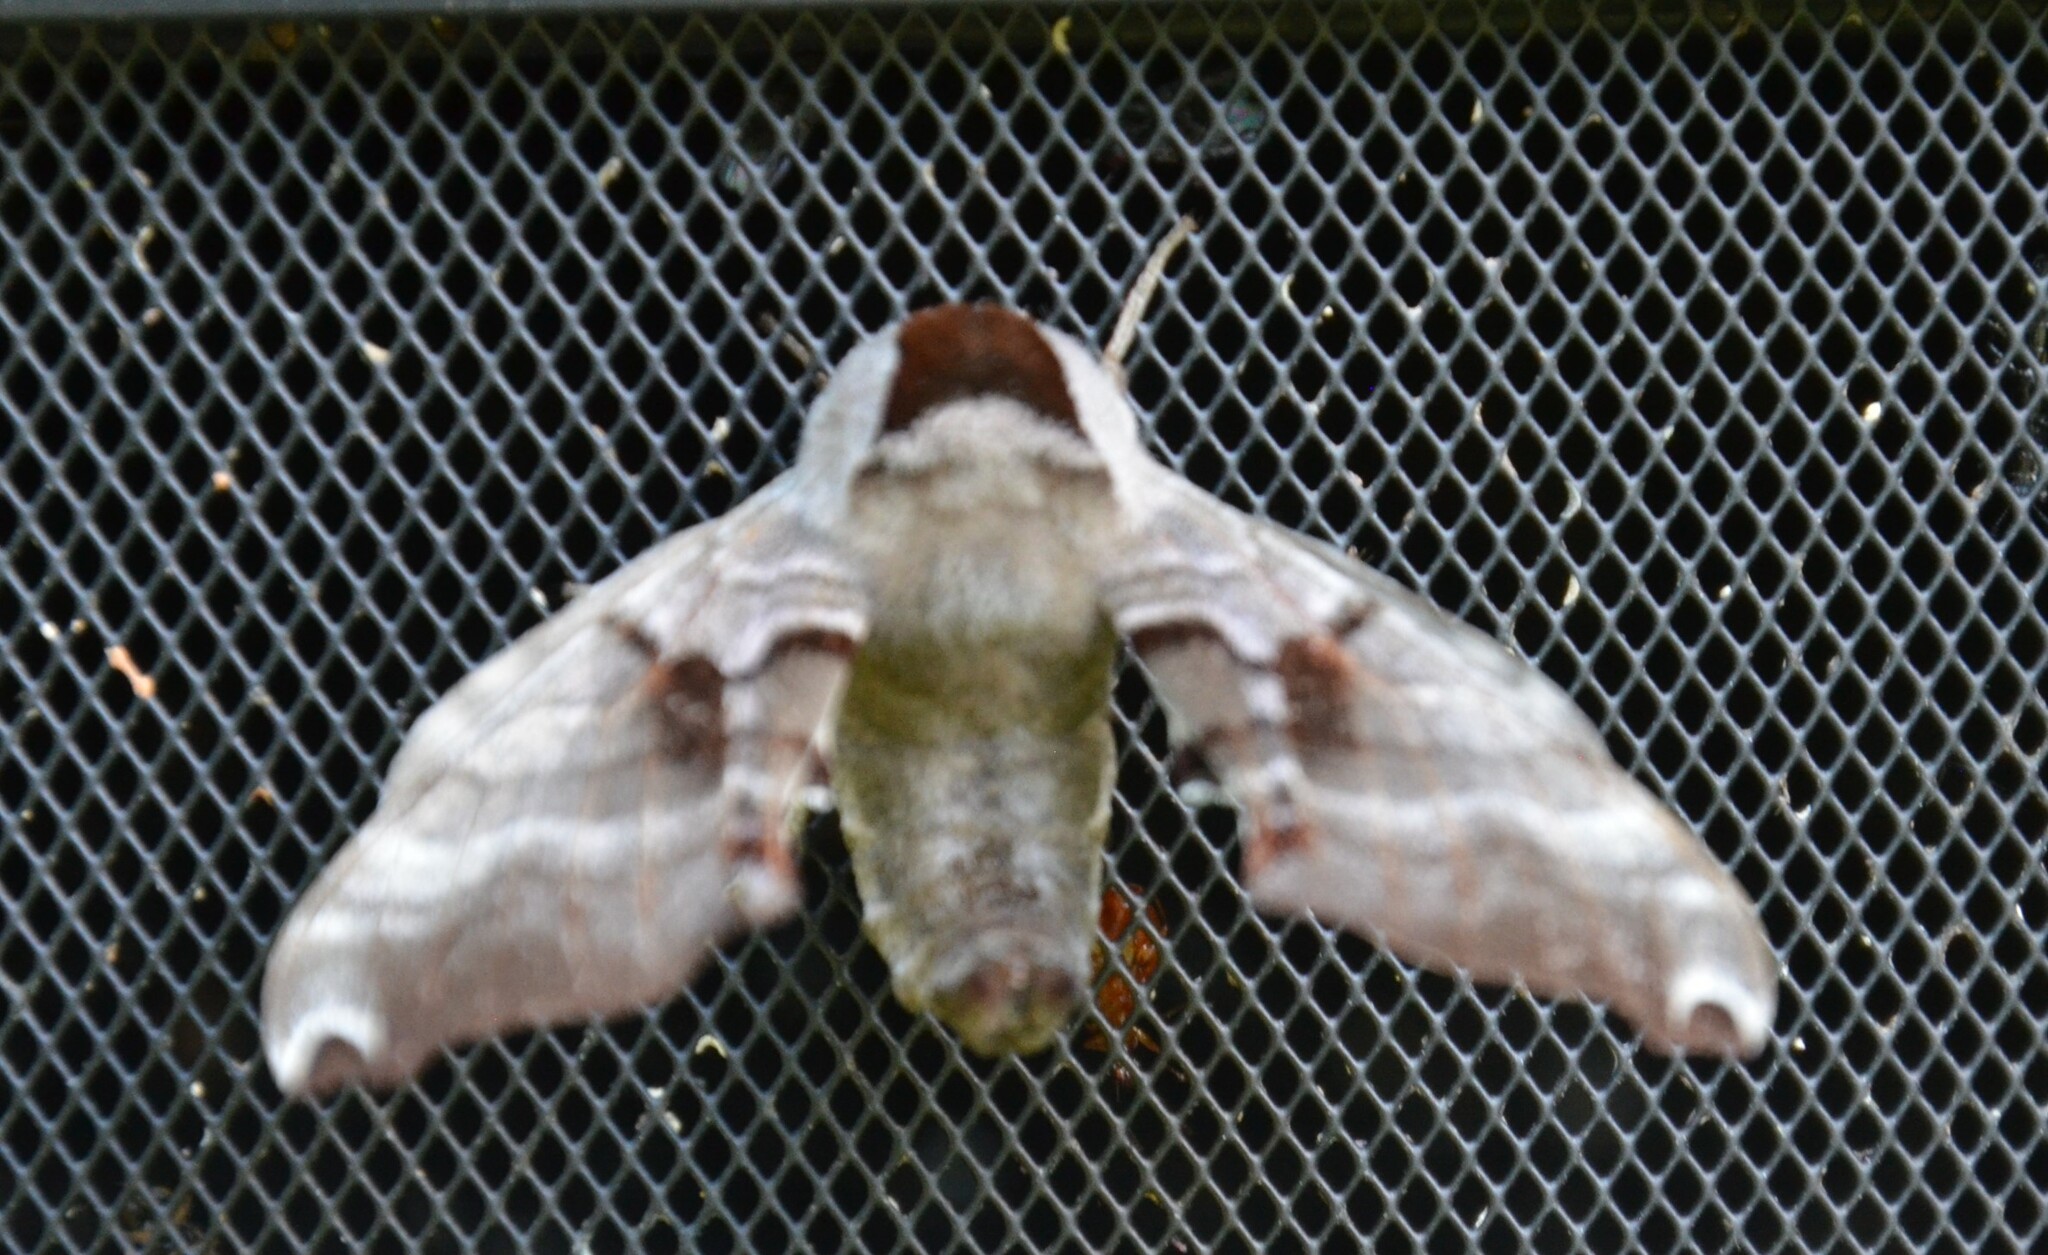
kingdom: Animalia
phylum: Arthropoda
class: Insecta
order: Lepidoptera
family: Sphingidae
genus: Smerinthus
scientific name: Smerinthus jamaicensis
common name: Twin spotted sphinx
